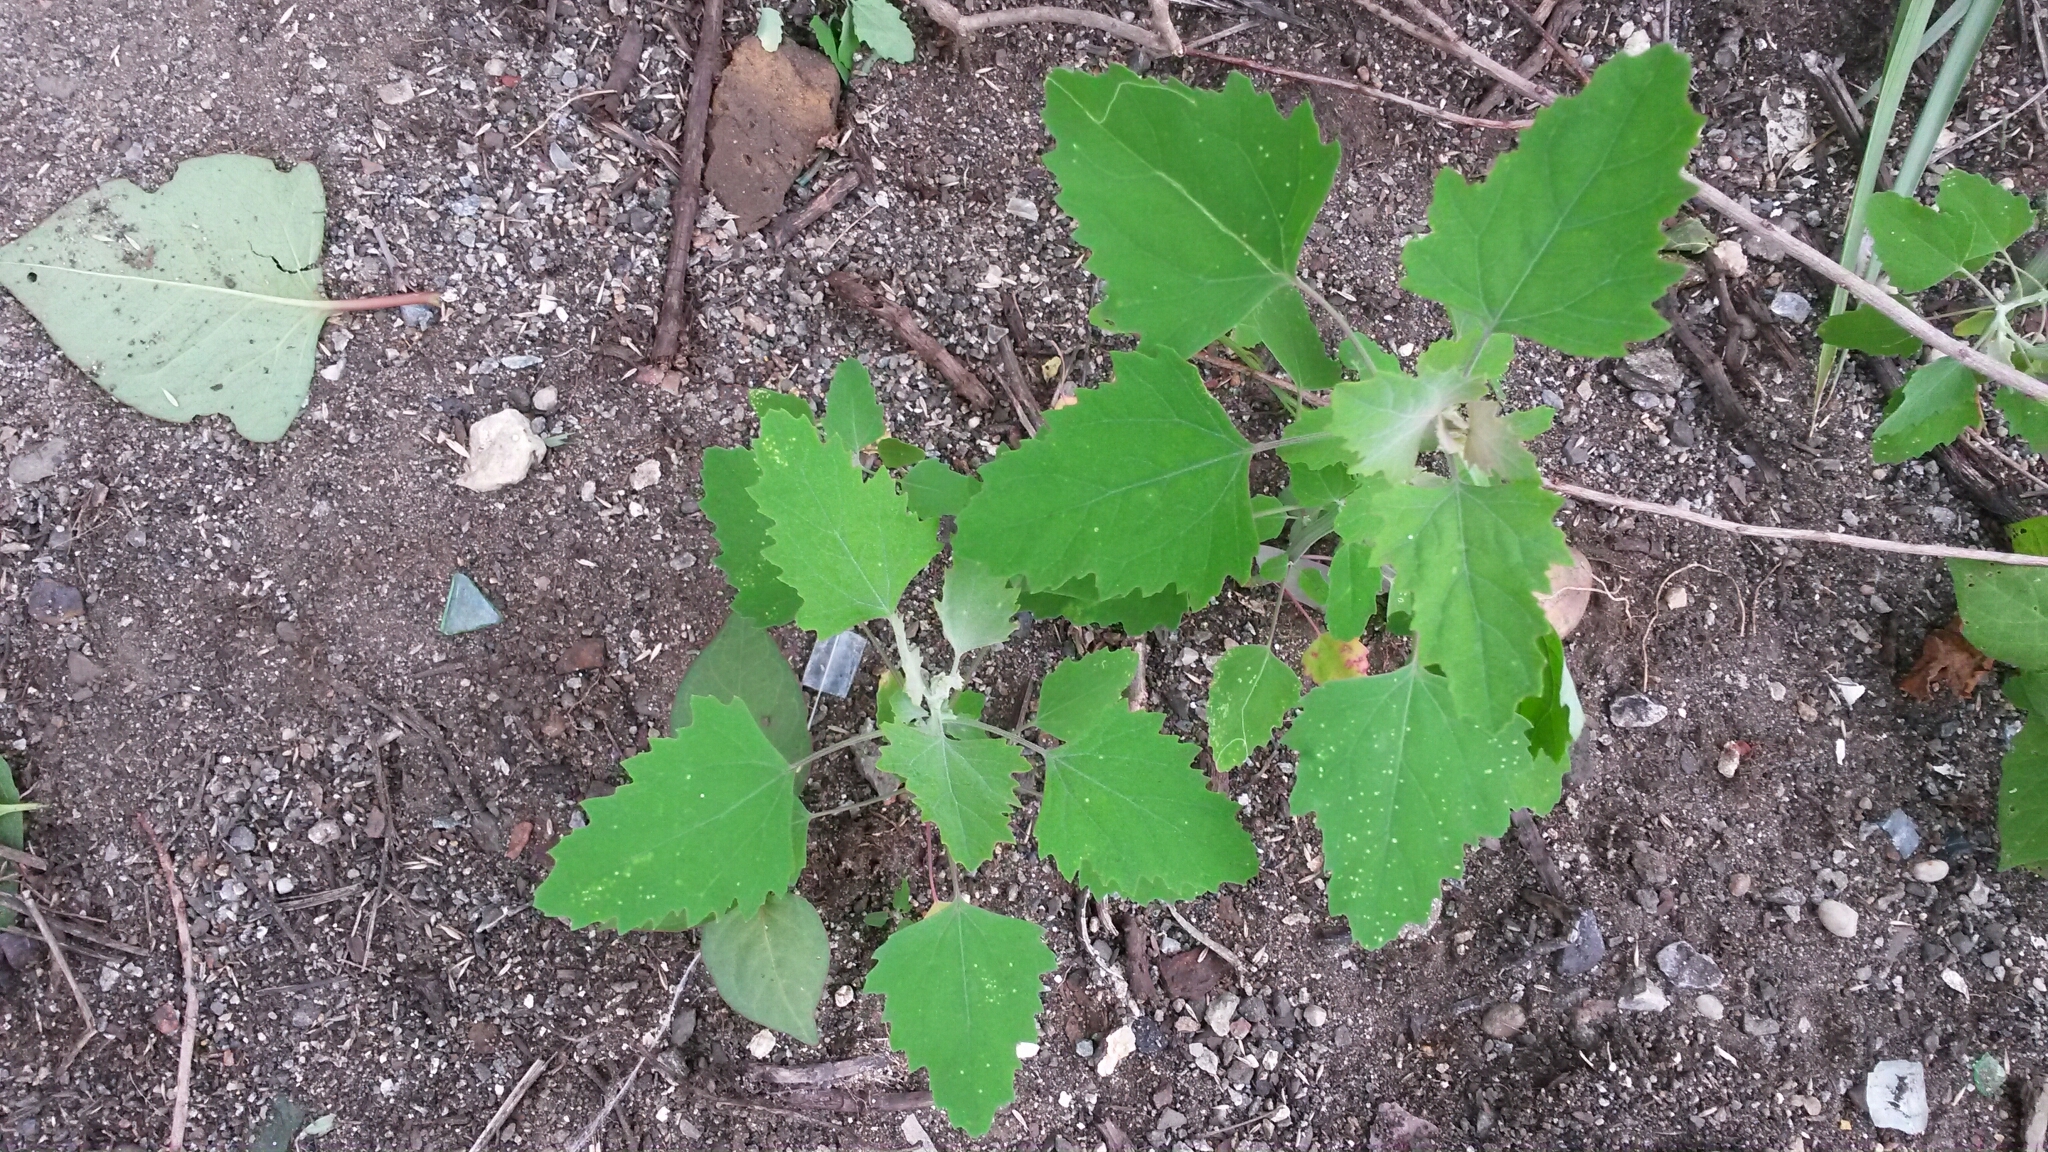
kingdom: Plantae
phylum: Tracheophyta
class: Magnoliopsida
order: Caryophyllales
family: Amaranthaceae
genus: Chenopodium
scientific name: Chenopodium album
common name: Fat-hen
